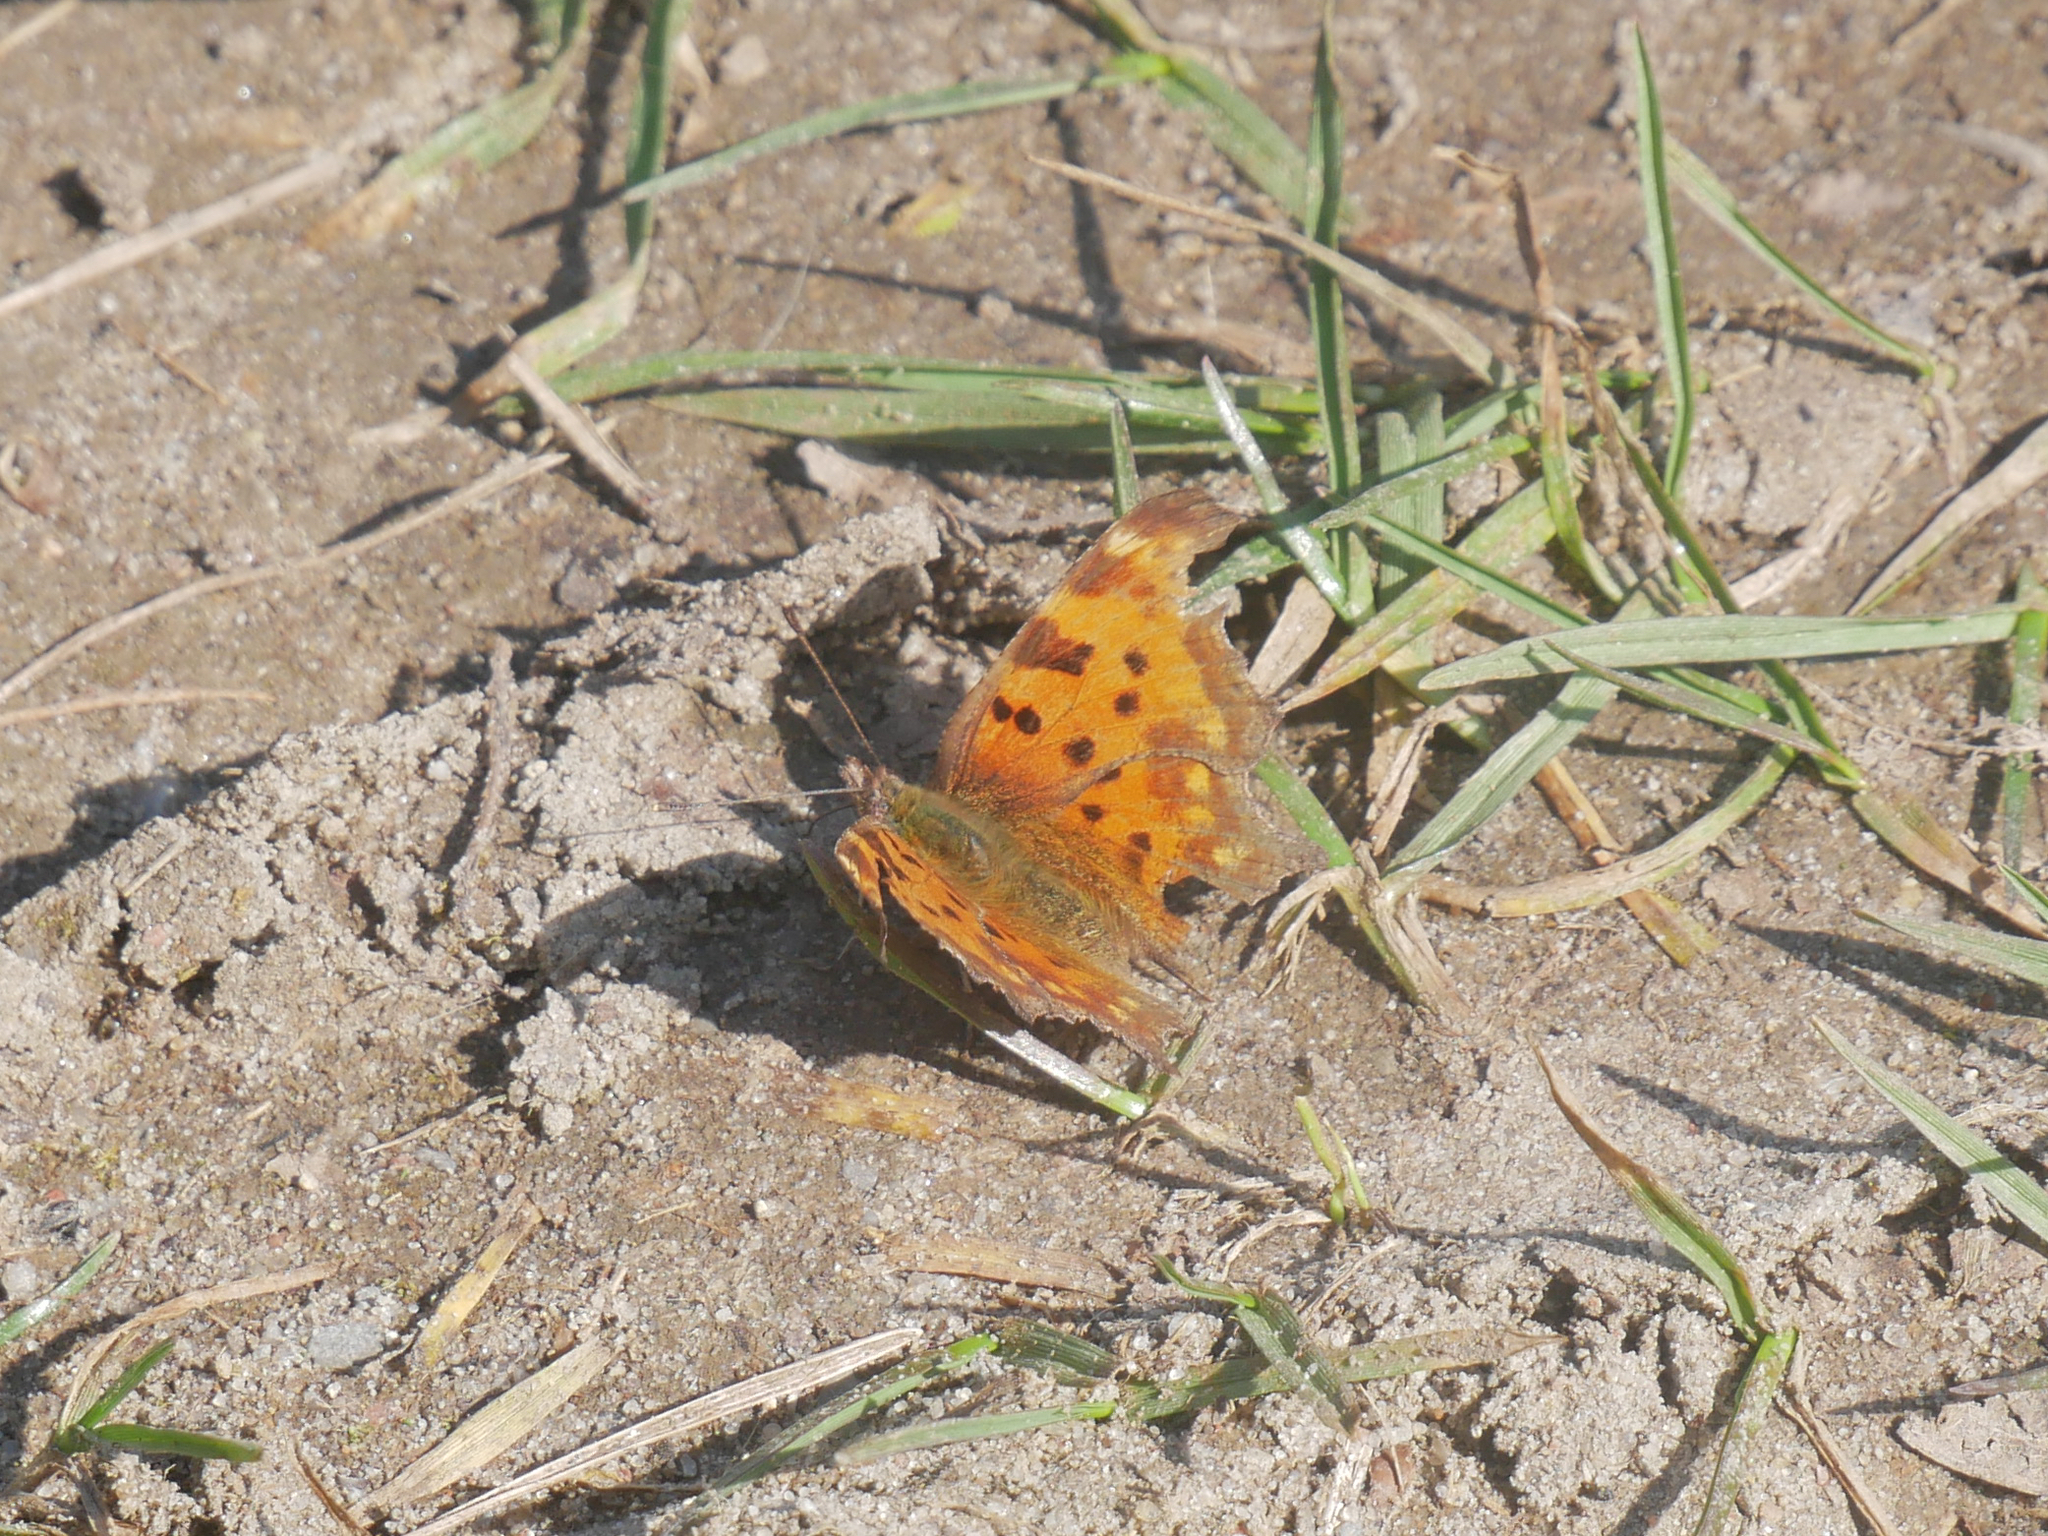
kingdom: Animalia
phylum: Arthropoda
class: Insecta
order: Lepidoptera
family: Nymphalidae
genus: Polygonia
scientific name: Polygonia c-album
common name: Comma
